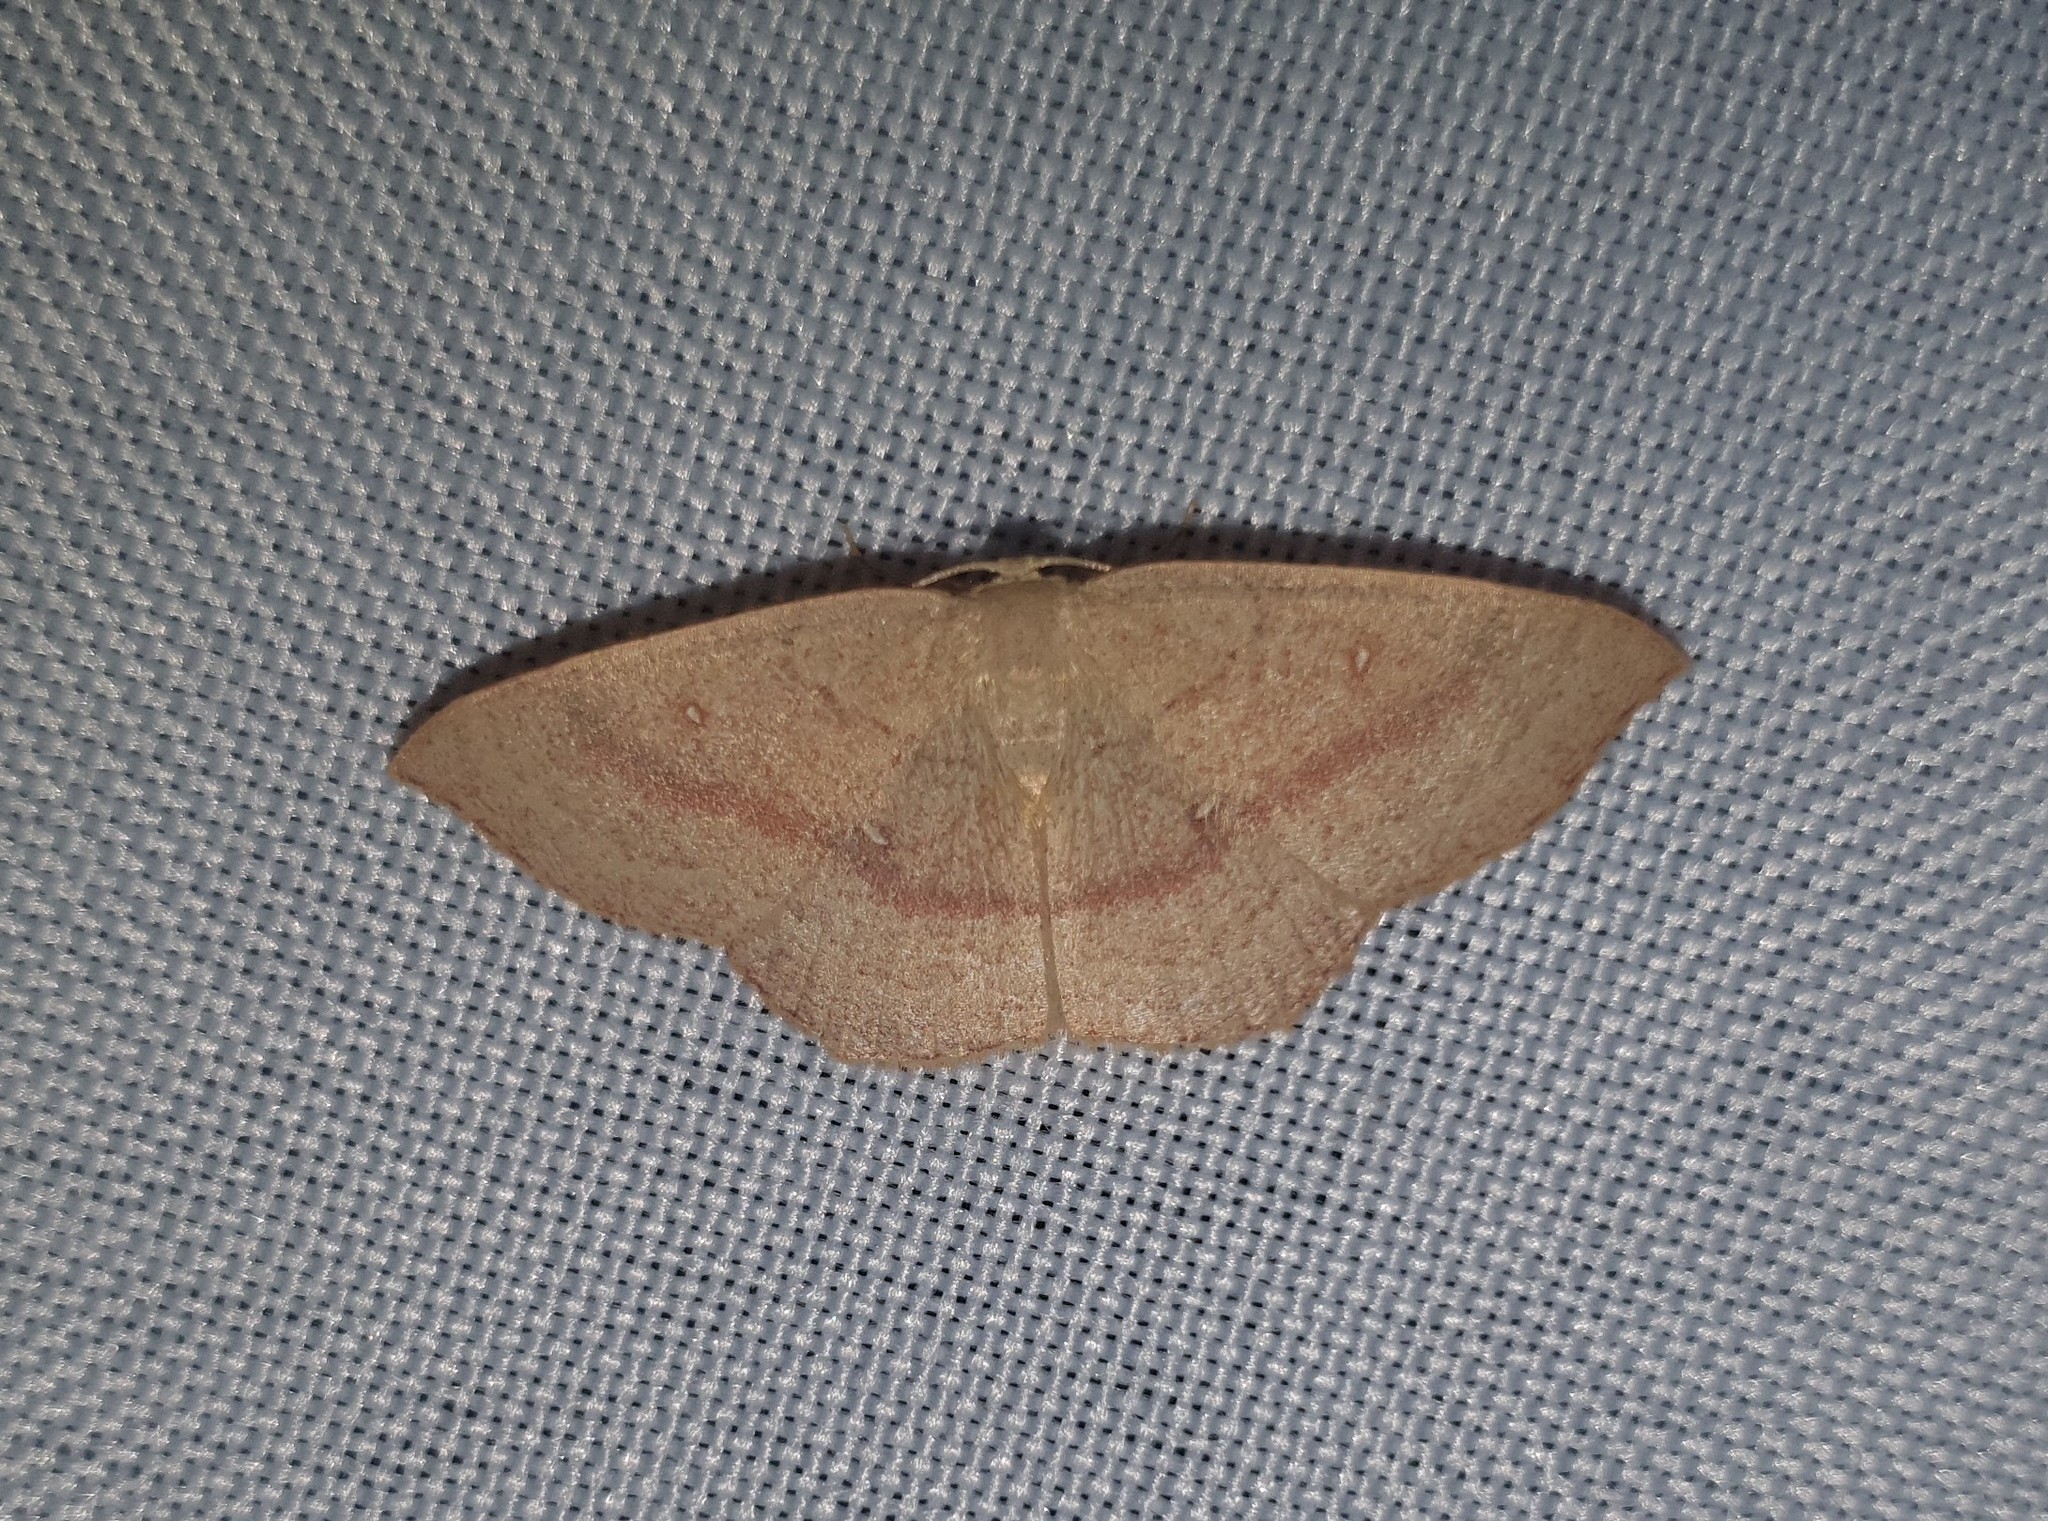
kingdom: Animalia
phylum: Arthropoda
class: Insecta
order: Lepidoptera
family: Geometridae
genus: Cyclophora
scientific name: Cyclophora linearia
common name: Clay triple-lines
